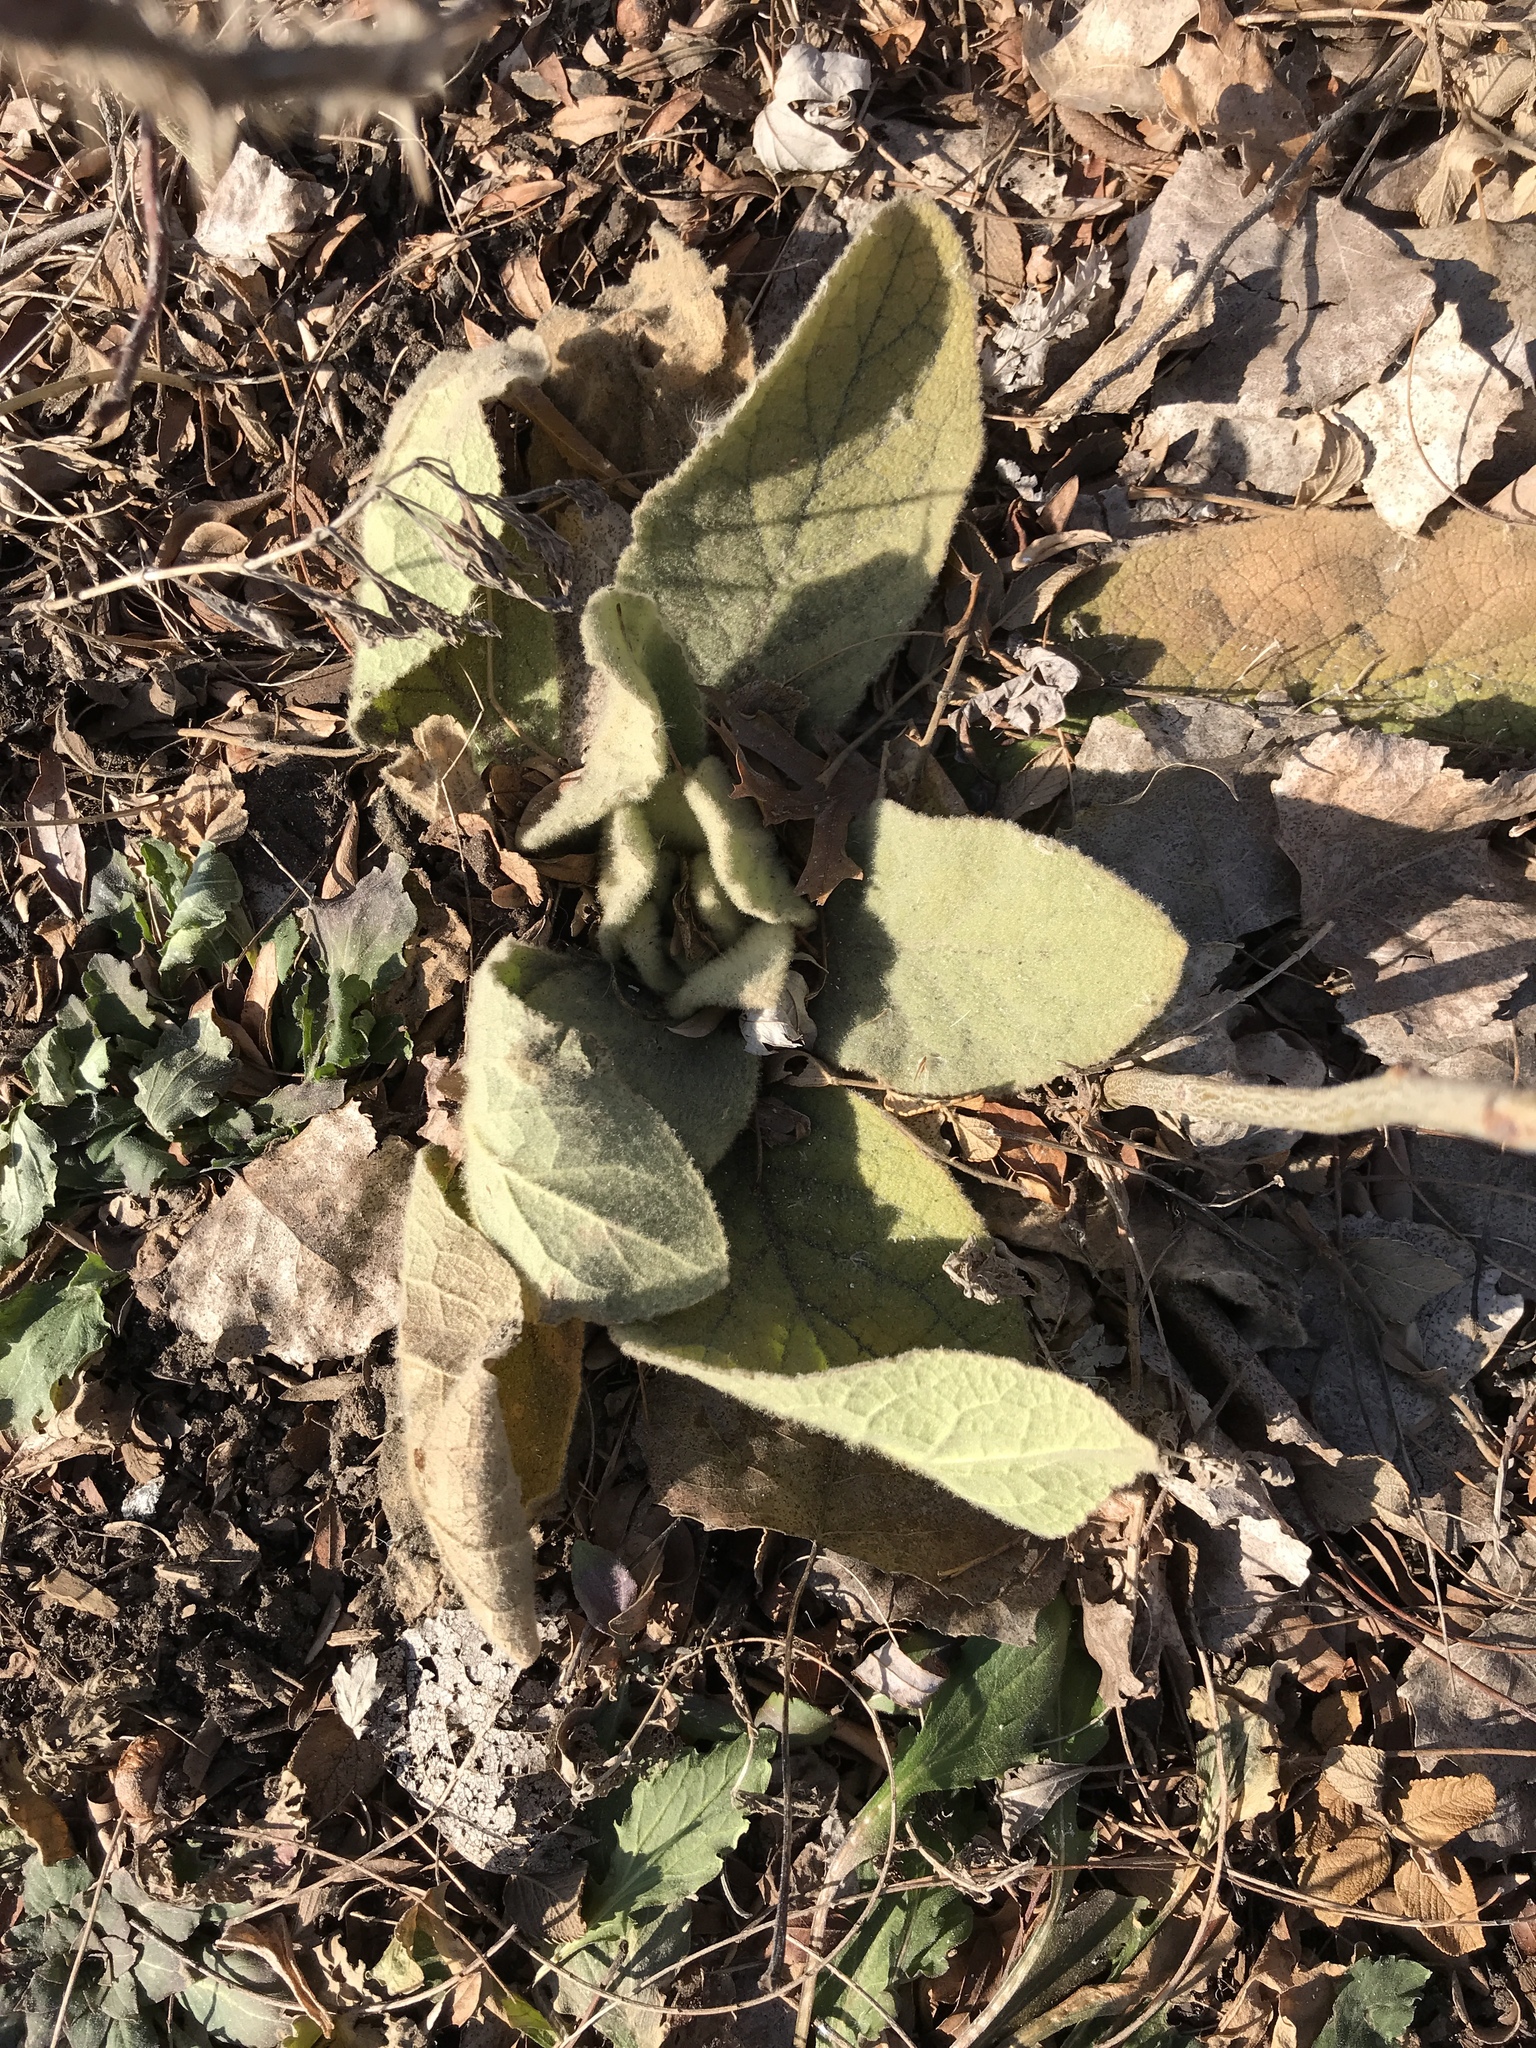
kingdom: Plantae
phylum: Tracheophyta
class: Magnoliopsida
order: Lamiales
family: Scrophulariaceae
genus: Verbascum
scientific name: Verbascum thapsus
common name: Common mullein
